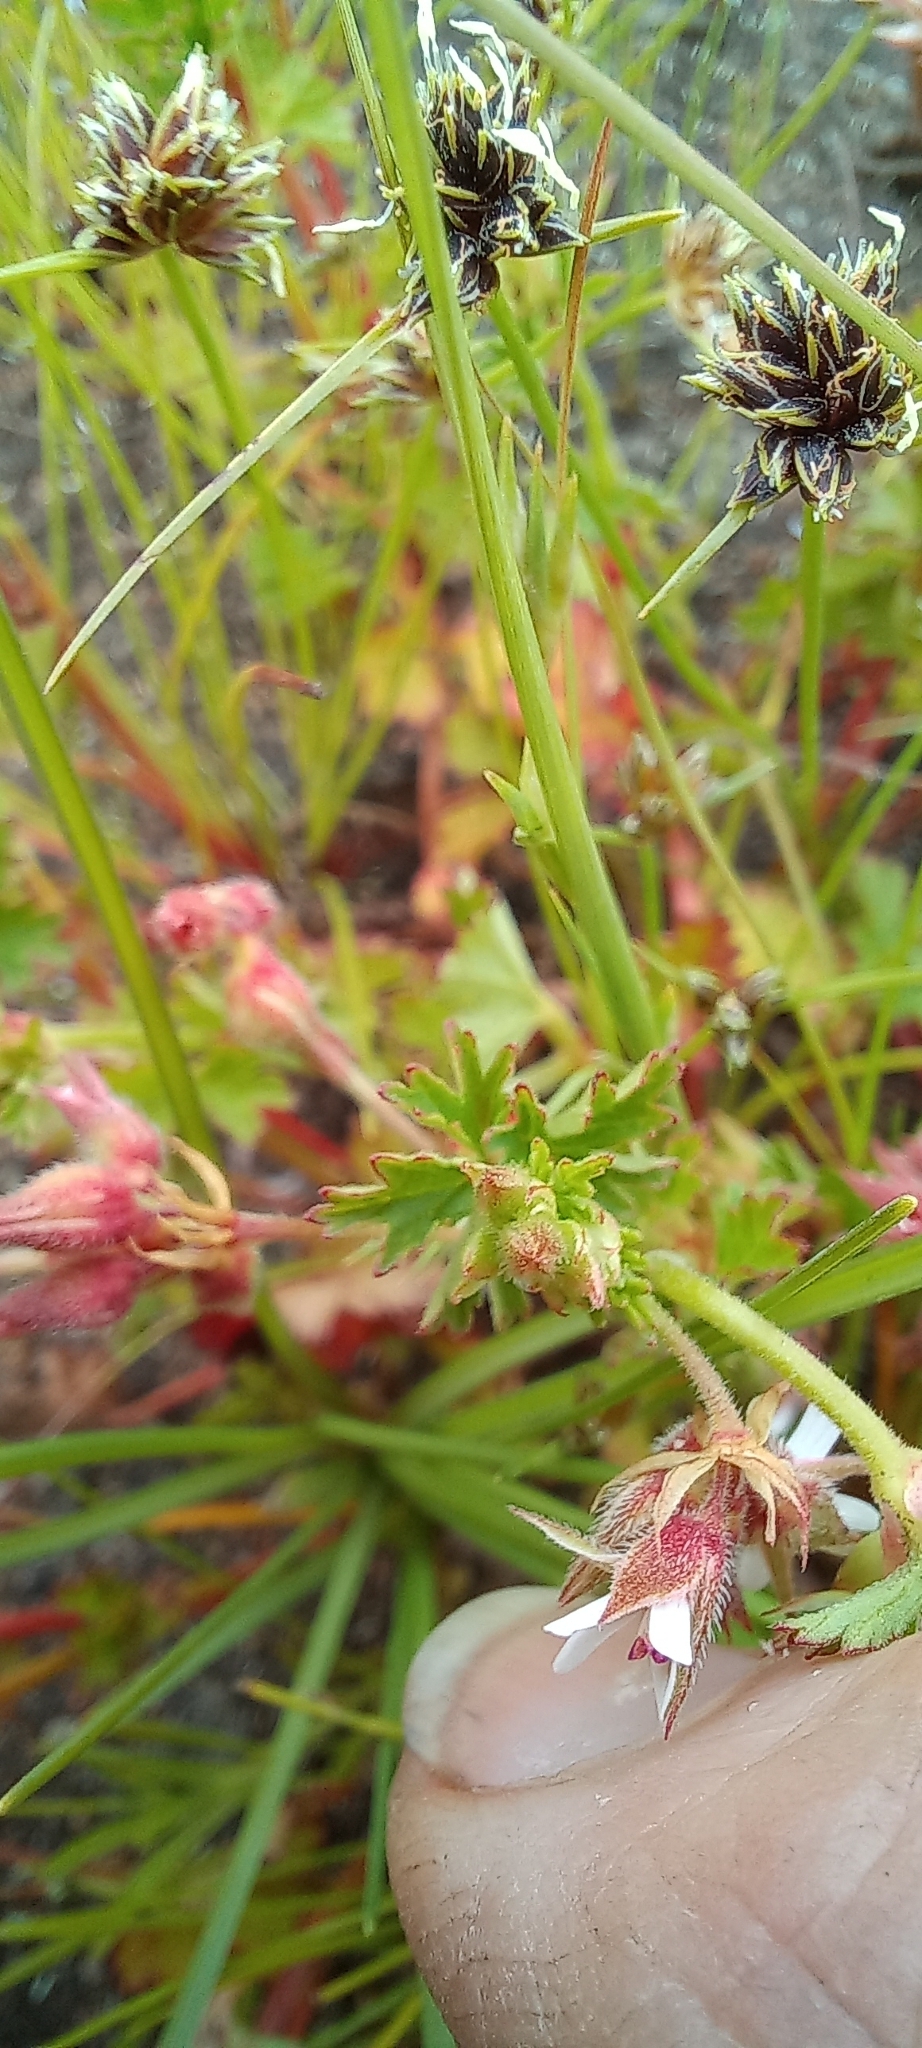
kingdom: Plantae
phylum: Tracheophyta
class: Magnoliopsida
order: Geraniales
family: Geraniaceae
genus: Pelargonium
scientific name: Pelargonium grossularioides
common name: Gooseberry geranium
